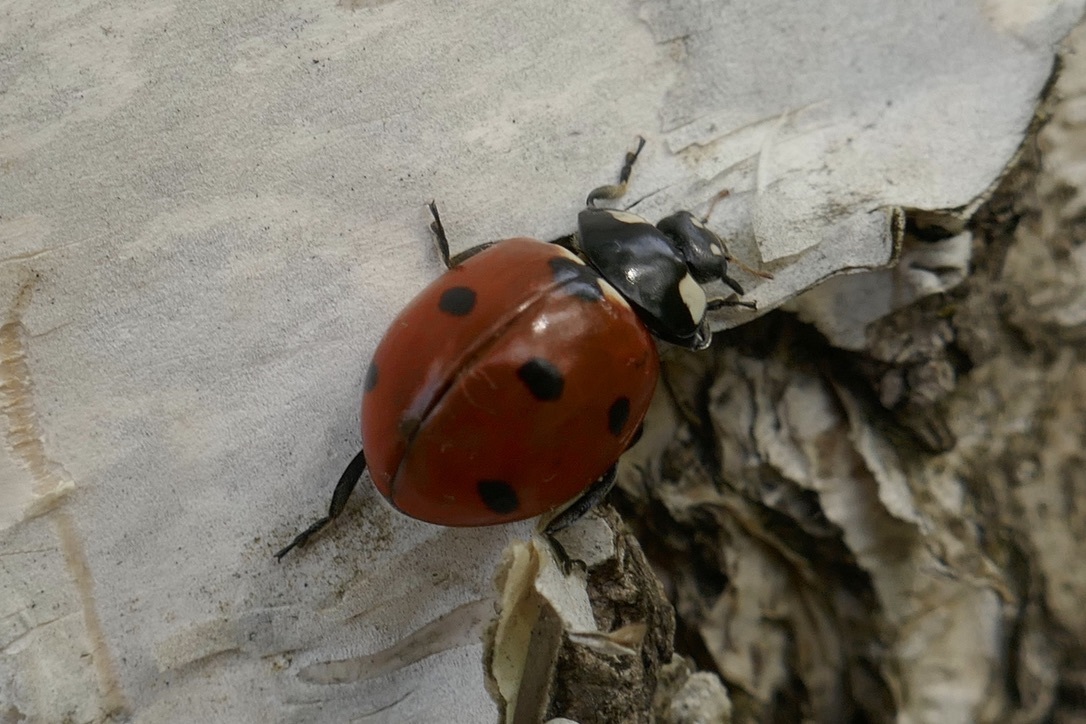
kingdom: Animalia
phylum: Arthropoda
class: Insecta
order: Coleoptera
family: Coccinellidae
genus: Coccinella
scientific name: Coccinella septempunctata
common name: Sevenspotted lady beetle
